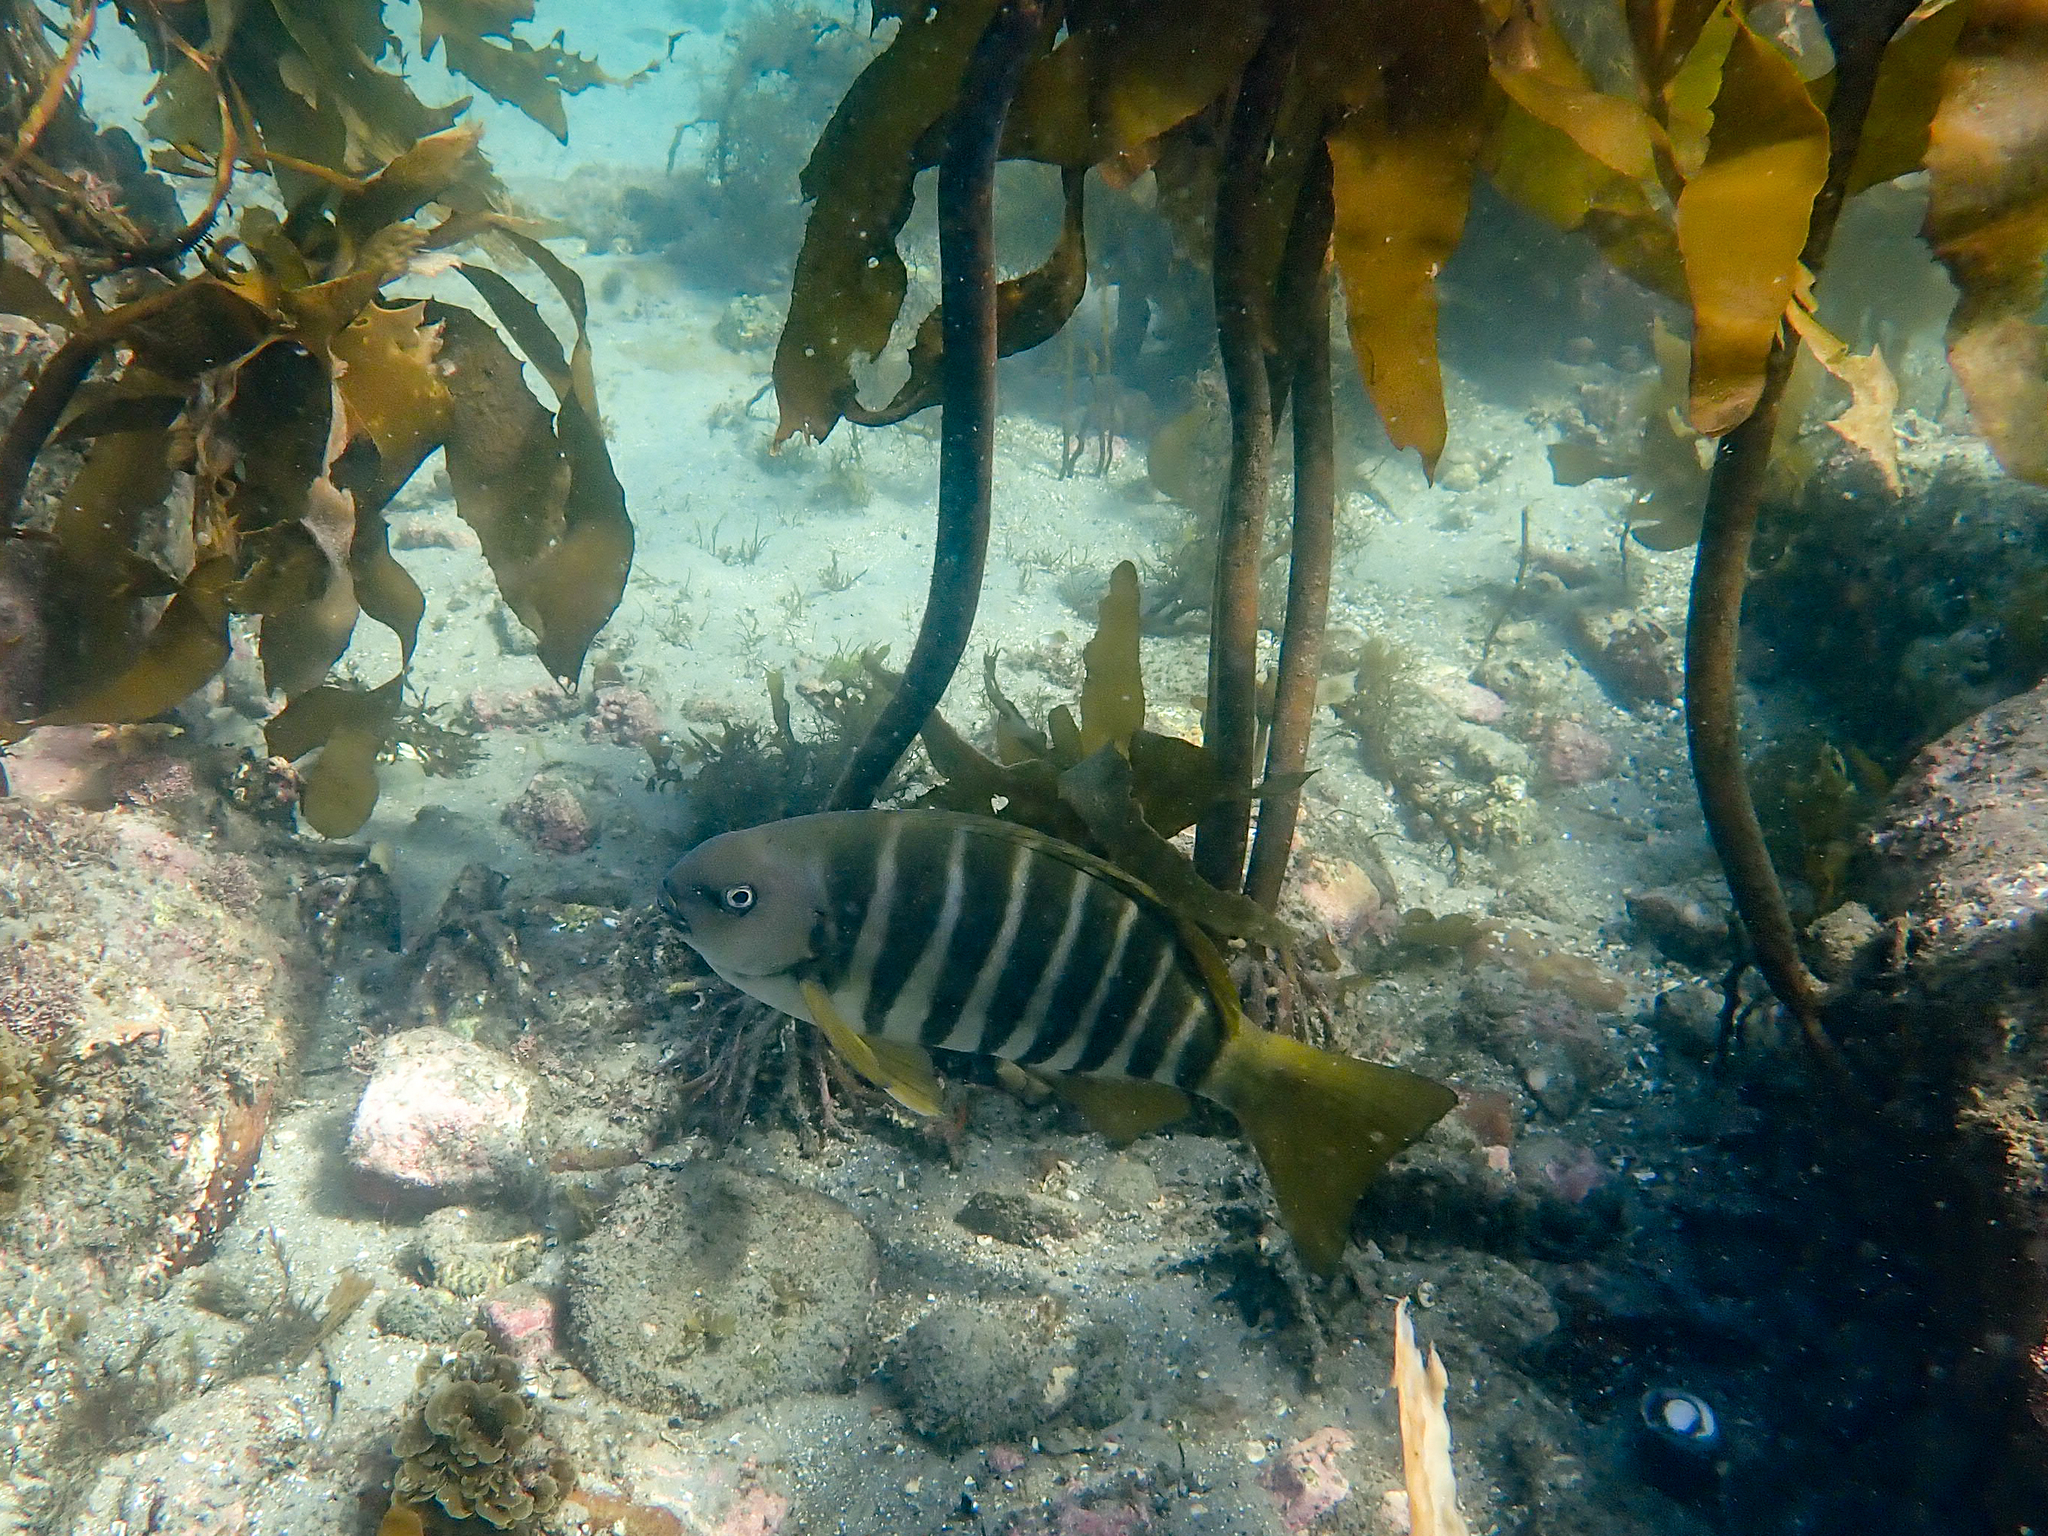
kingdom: Animalia
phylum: Chordata
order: Perciformes
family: Kyphosidae
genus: Girella
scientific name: Girella zebra
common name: Stripey bream
